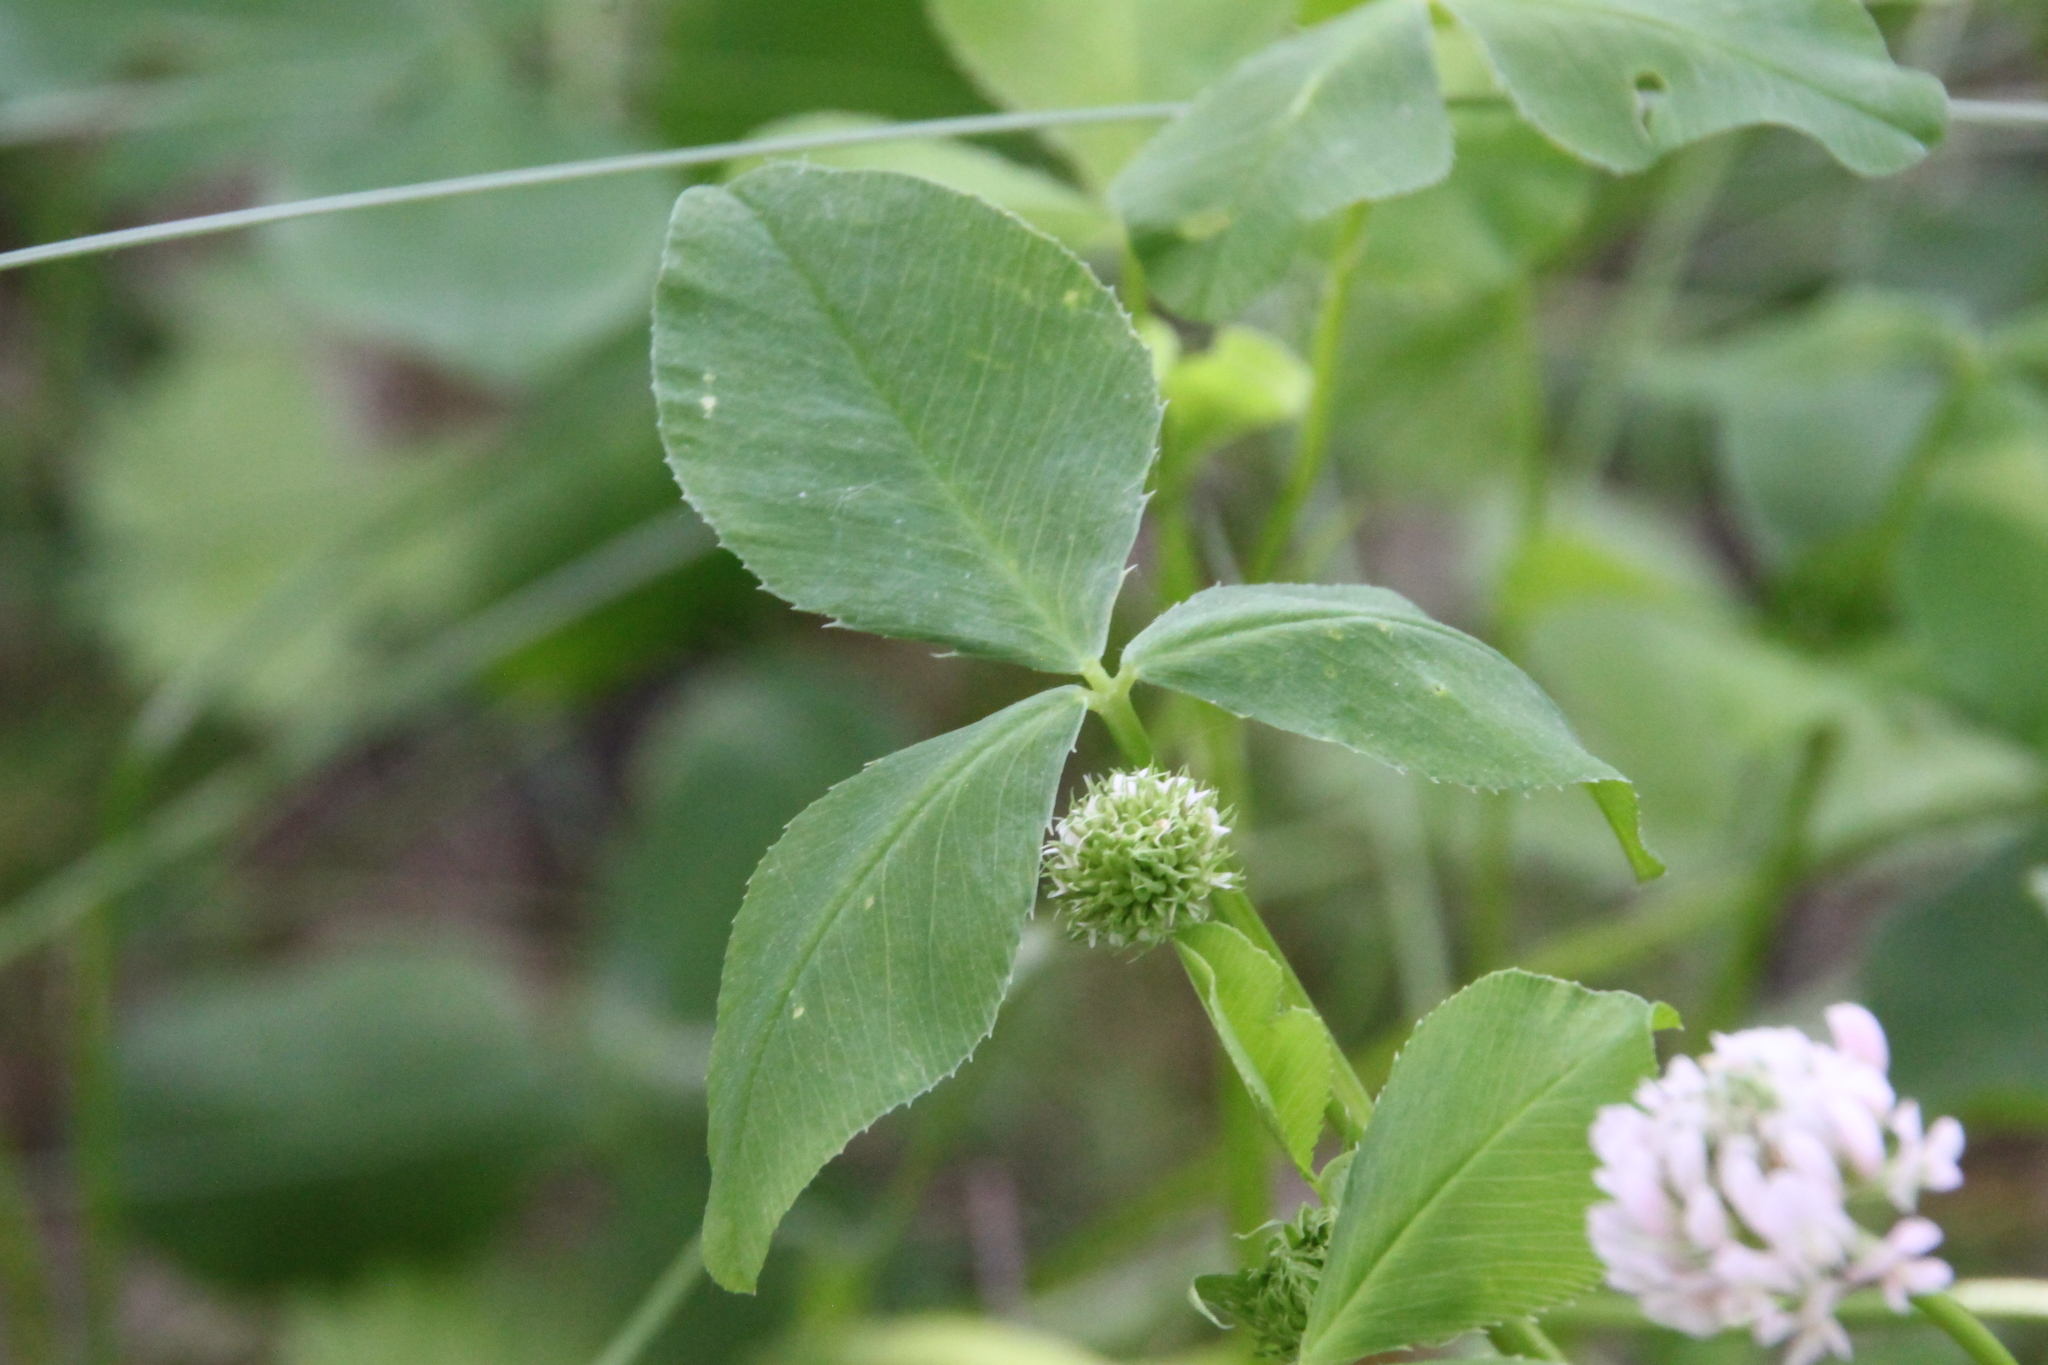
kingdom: Plantae
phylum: Tracheophyta
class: Magnoliopsida
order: Fabales
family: Fabaceae
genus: Trifolium
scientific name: Trifolium hybridum
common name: Alsike clover
